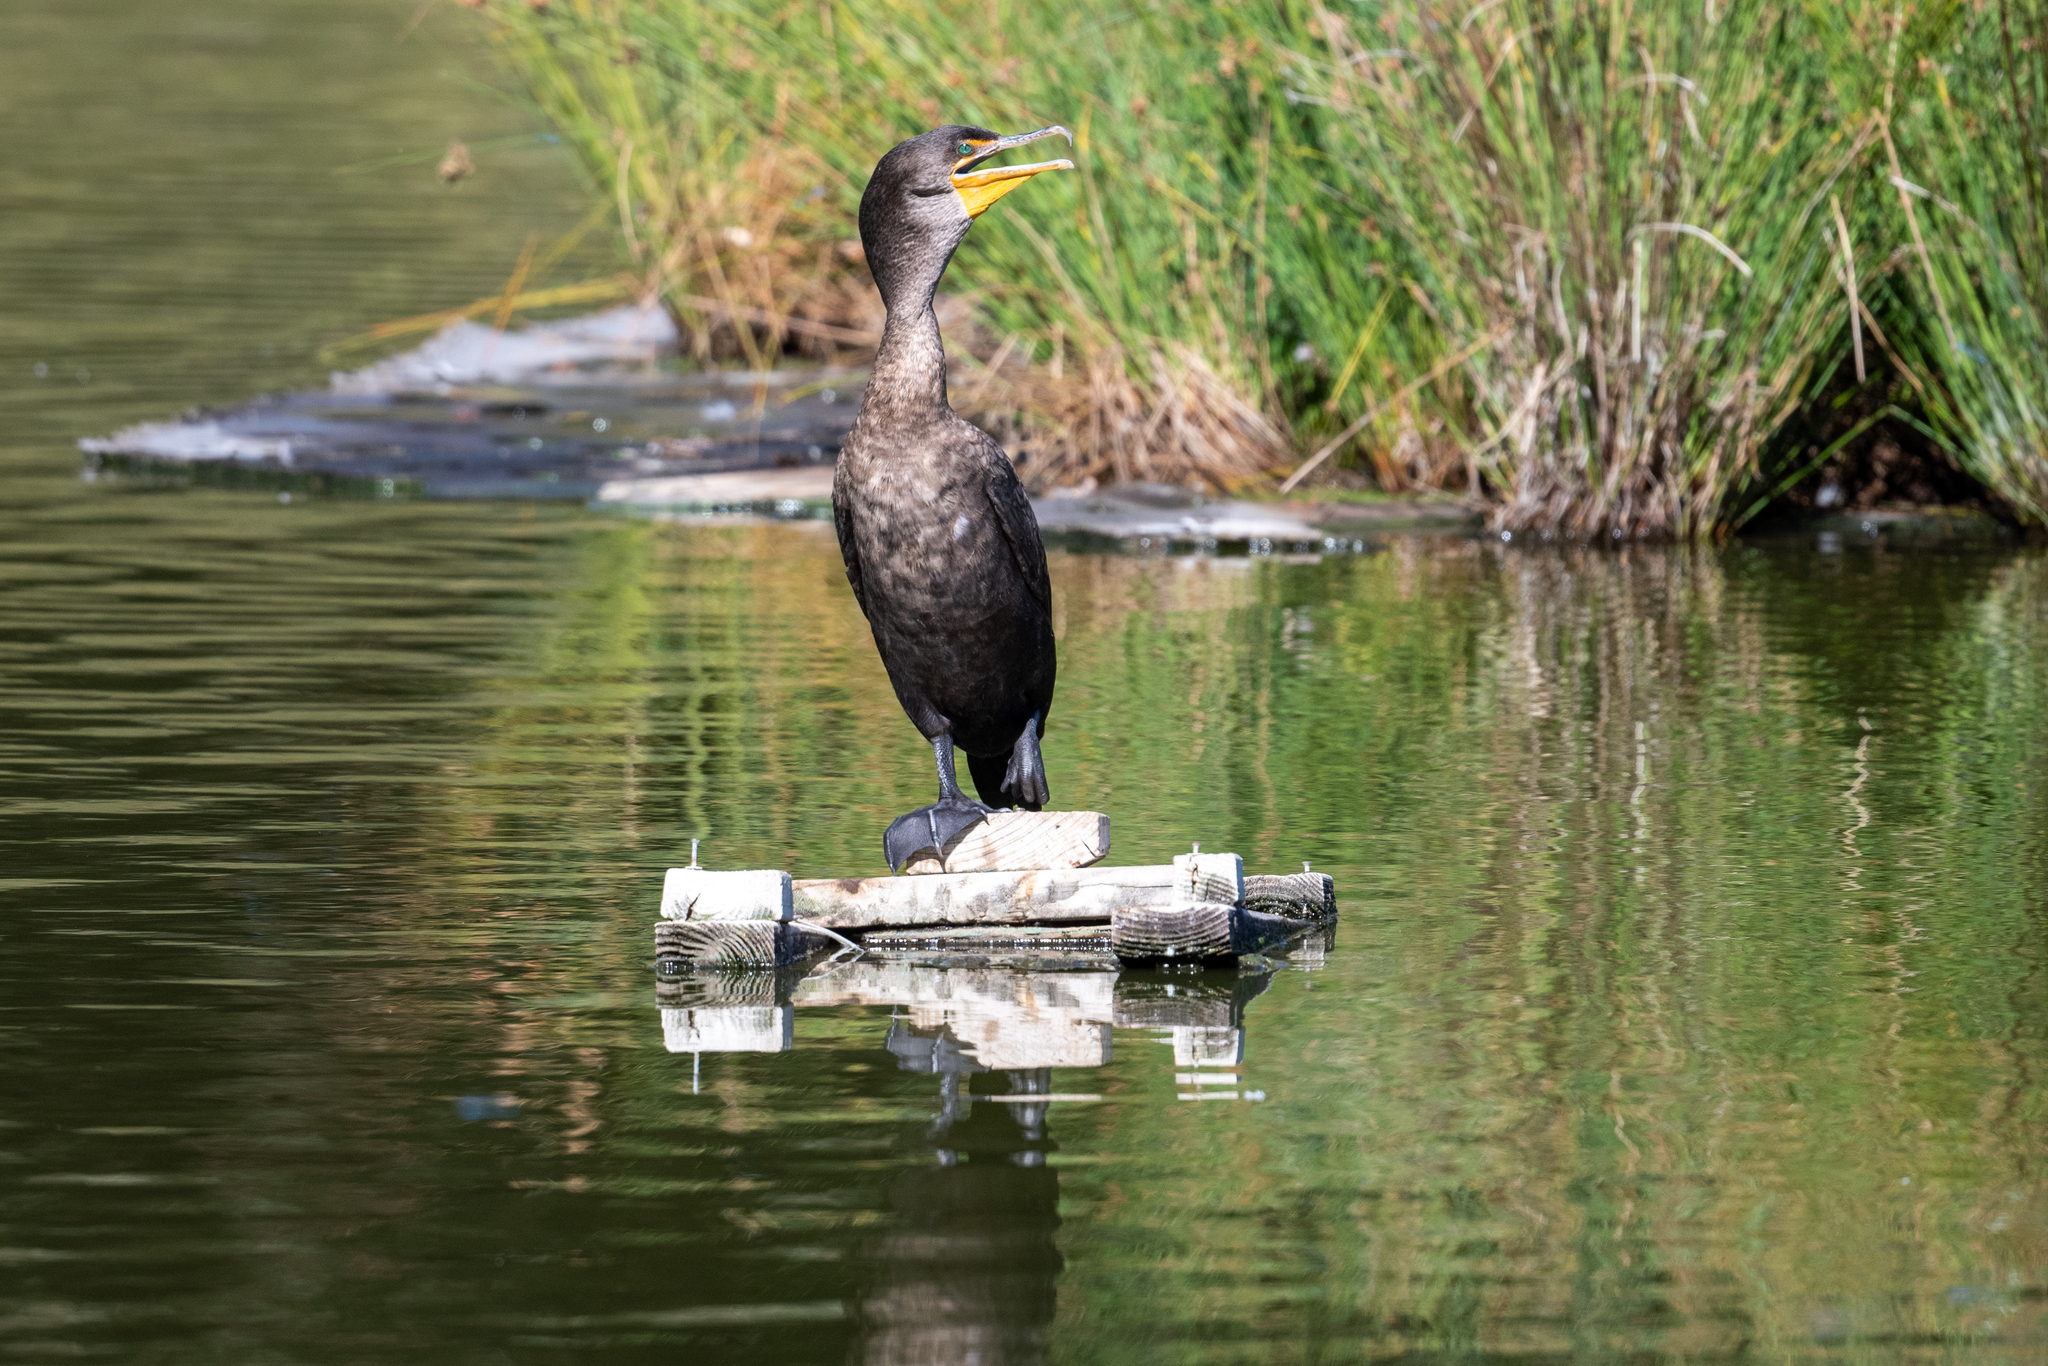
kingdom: Animalia
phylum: Chordata
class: Aves
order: Suliformes
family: Phalacrocoracidae
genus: Phalacrocorax
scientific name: Phalacrocorax auritus
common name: Double-crested cormorant
